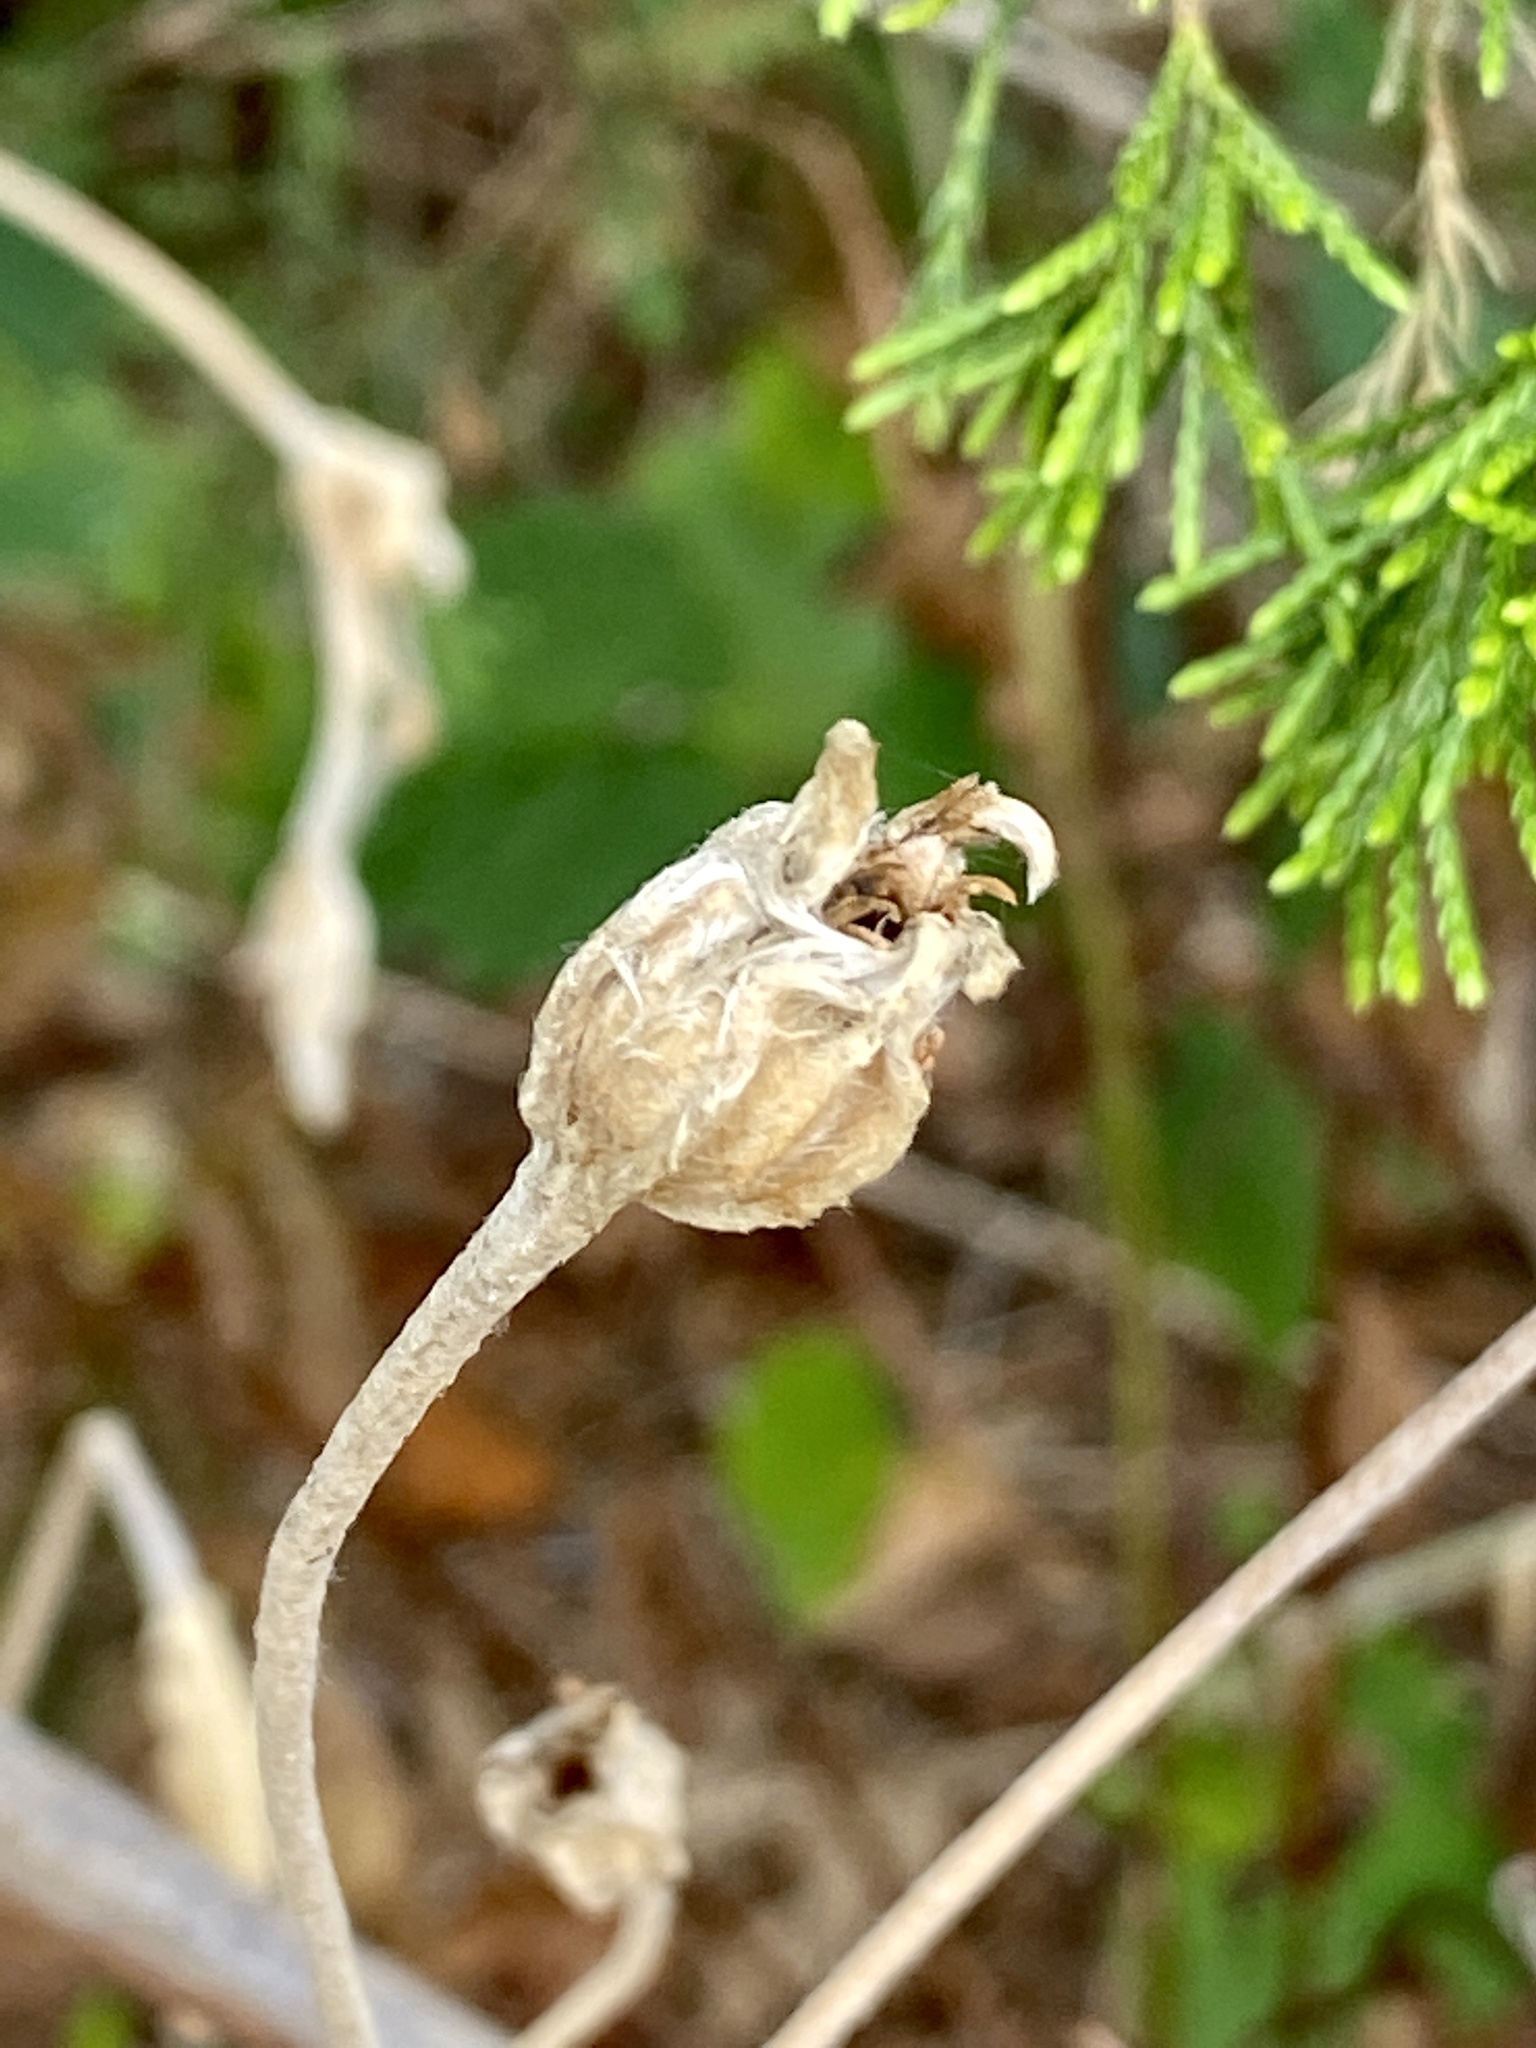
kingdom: Plantae
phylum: Tracheophyta
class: Magnoliopsida
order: Caryophyllales
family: Caryophyllaceae
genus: Silene
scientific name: Silene coronaria
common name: Rose campion
